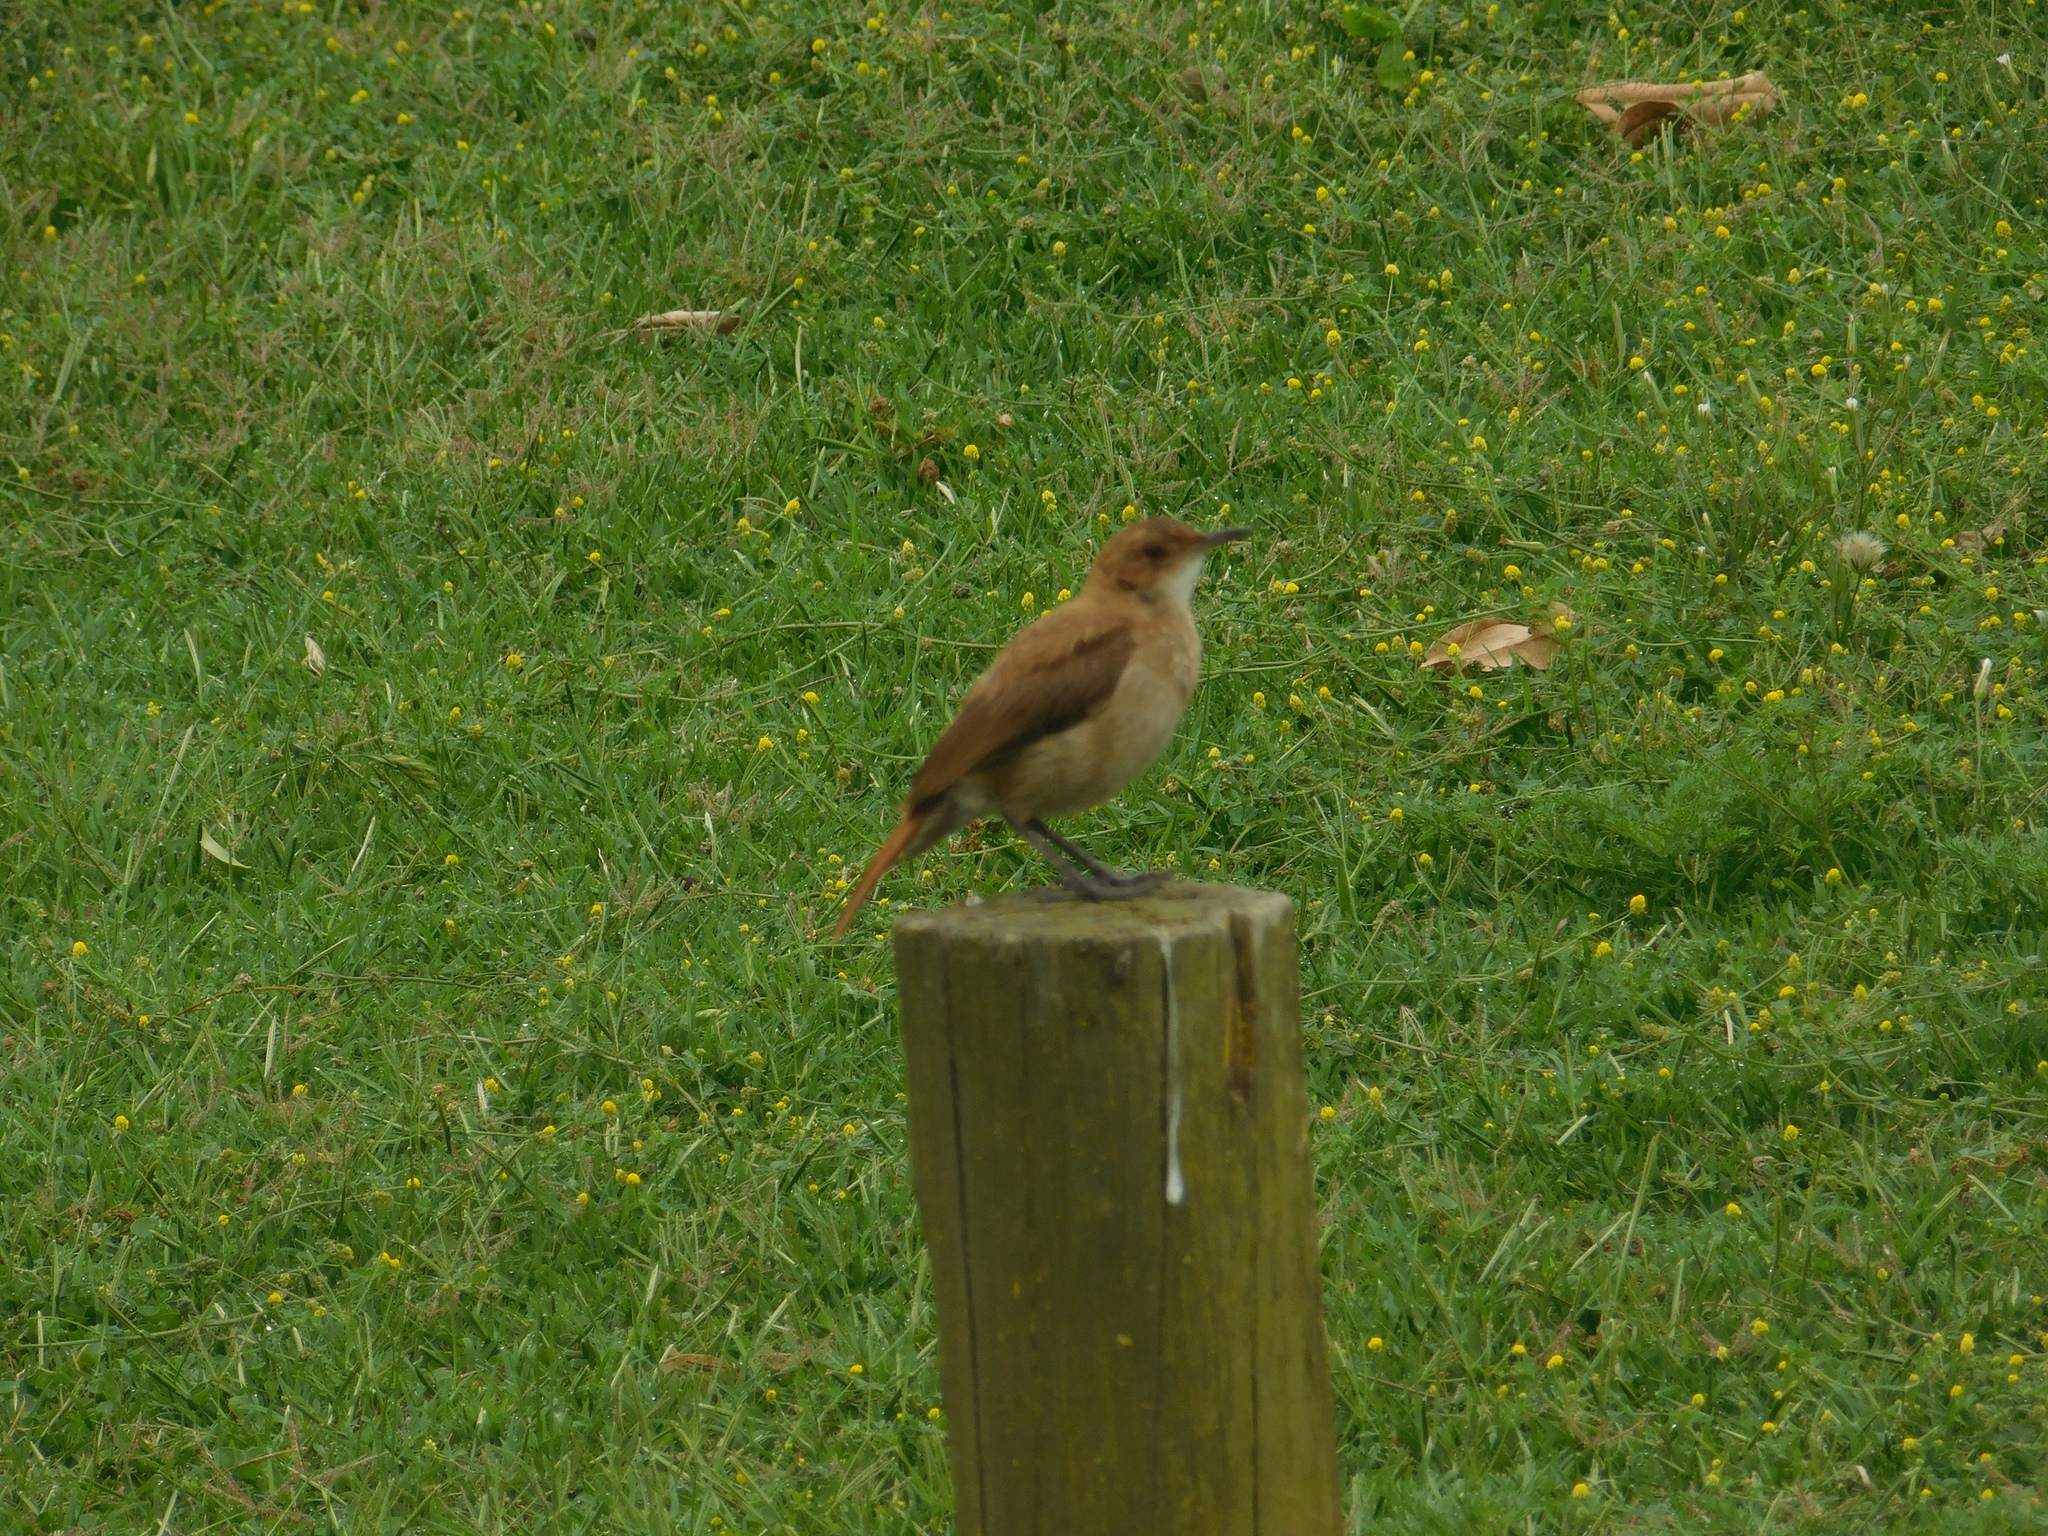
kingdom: Animalia
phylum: Chordata
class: Aves
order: Passeriformes
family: Furnariidae
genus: Furnarius
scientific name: Furnarius rufus
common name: Rufous hornero
